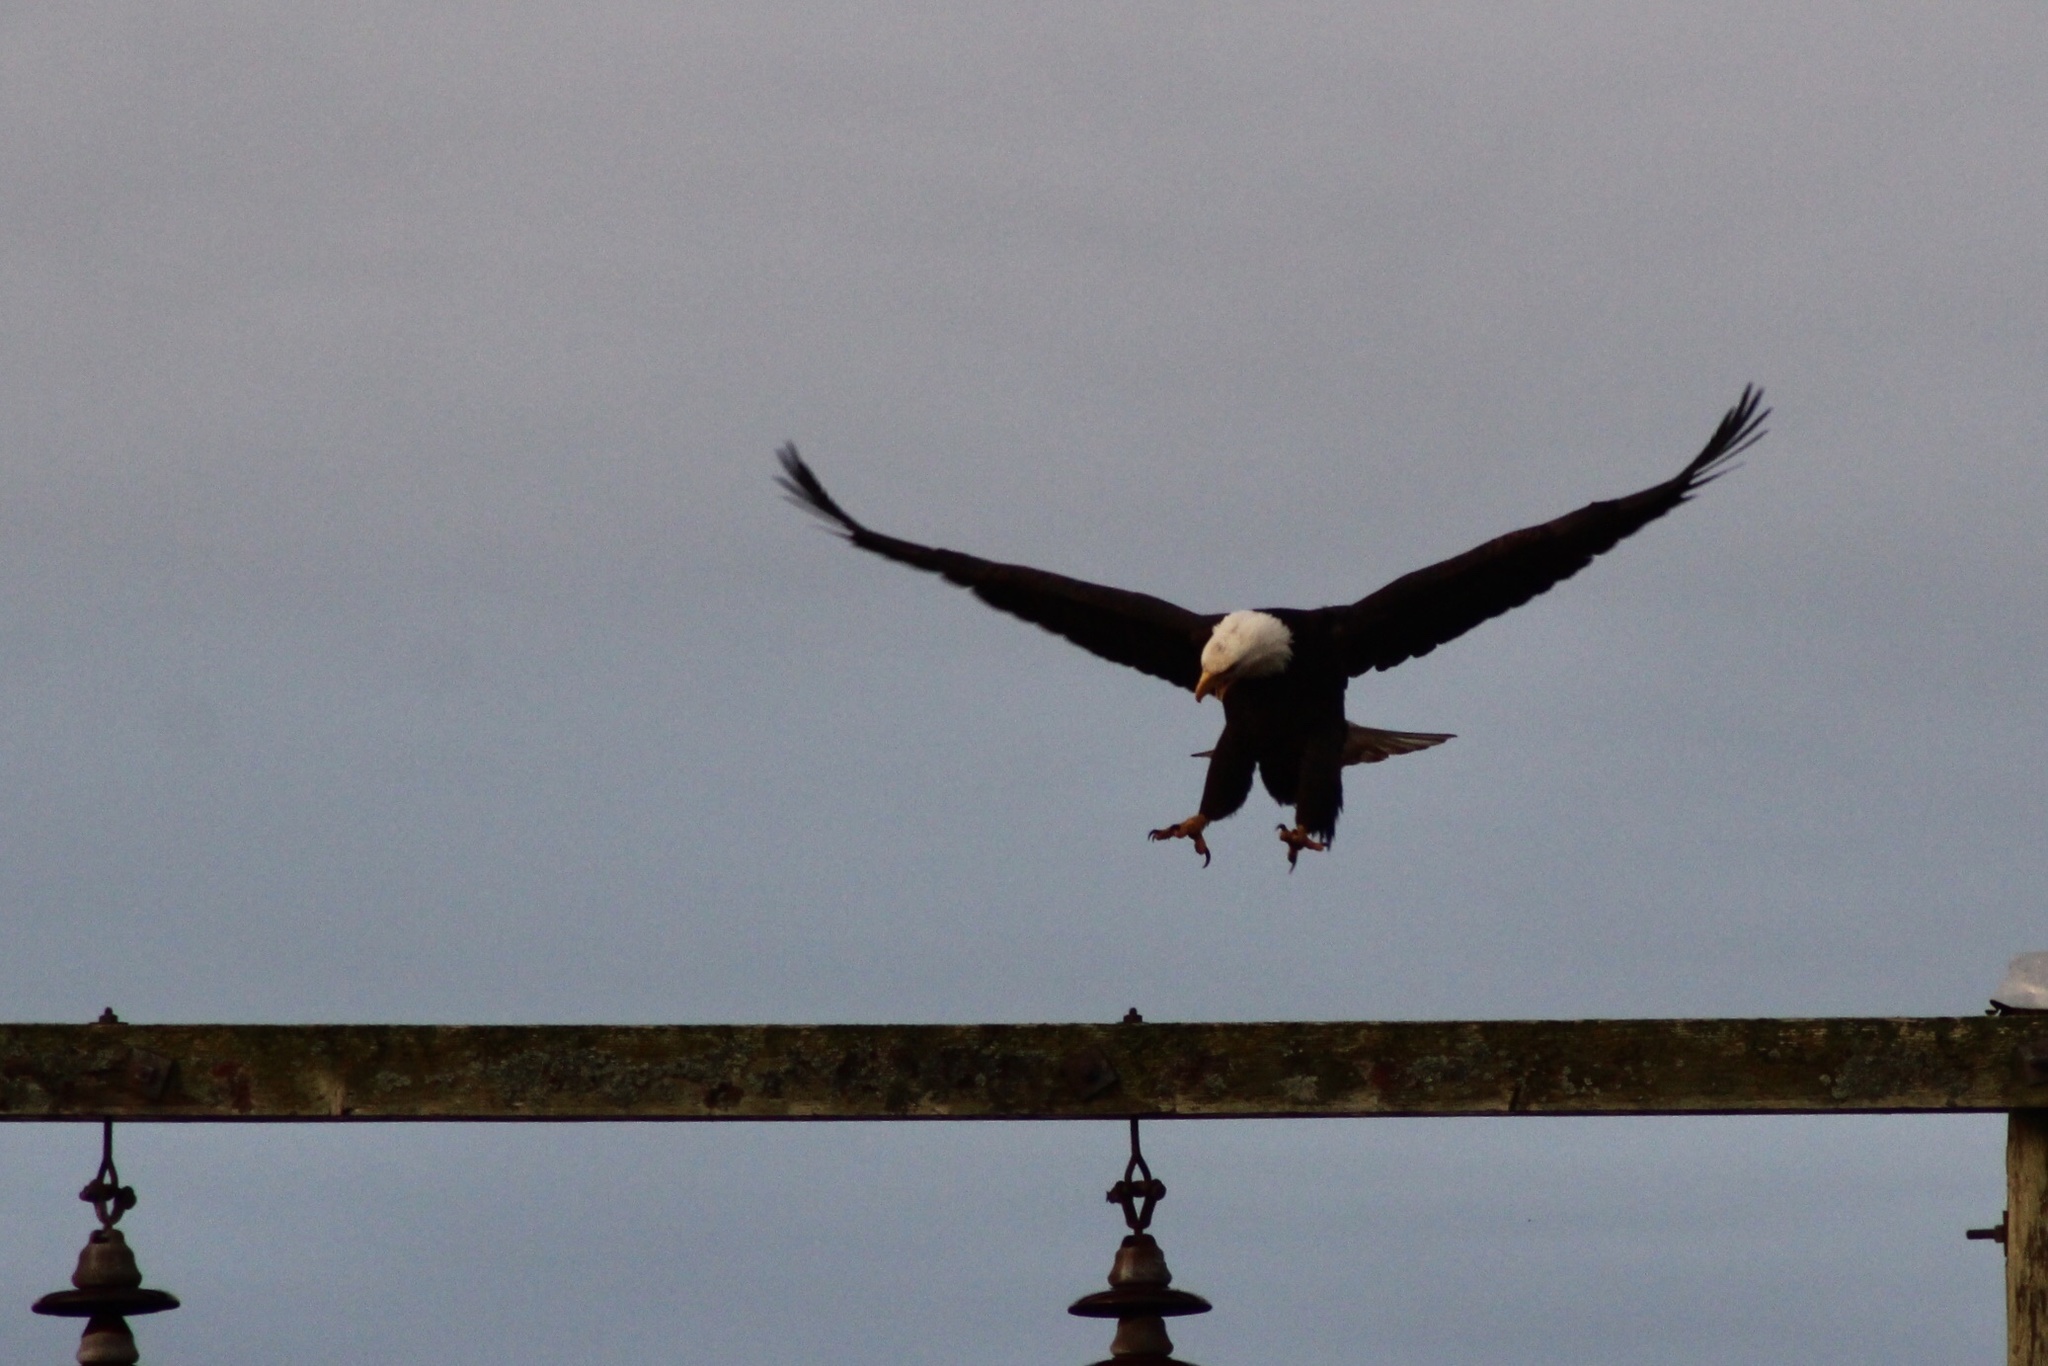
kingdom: Animalia
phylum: Chordata
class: Aves
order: Accipitriformes
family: Accipitridae
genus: Haliaeetus
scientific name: Haliaeetus leucocephalus
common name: Bald eagle
